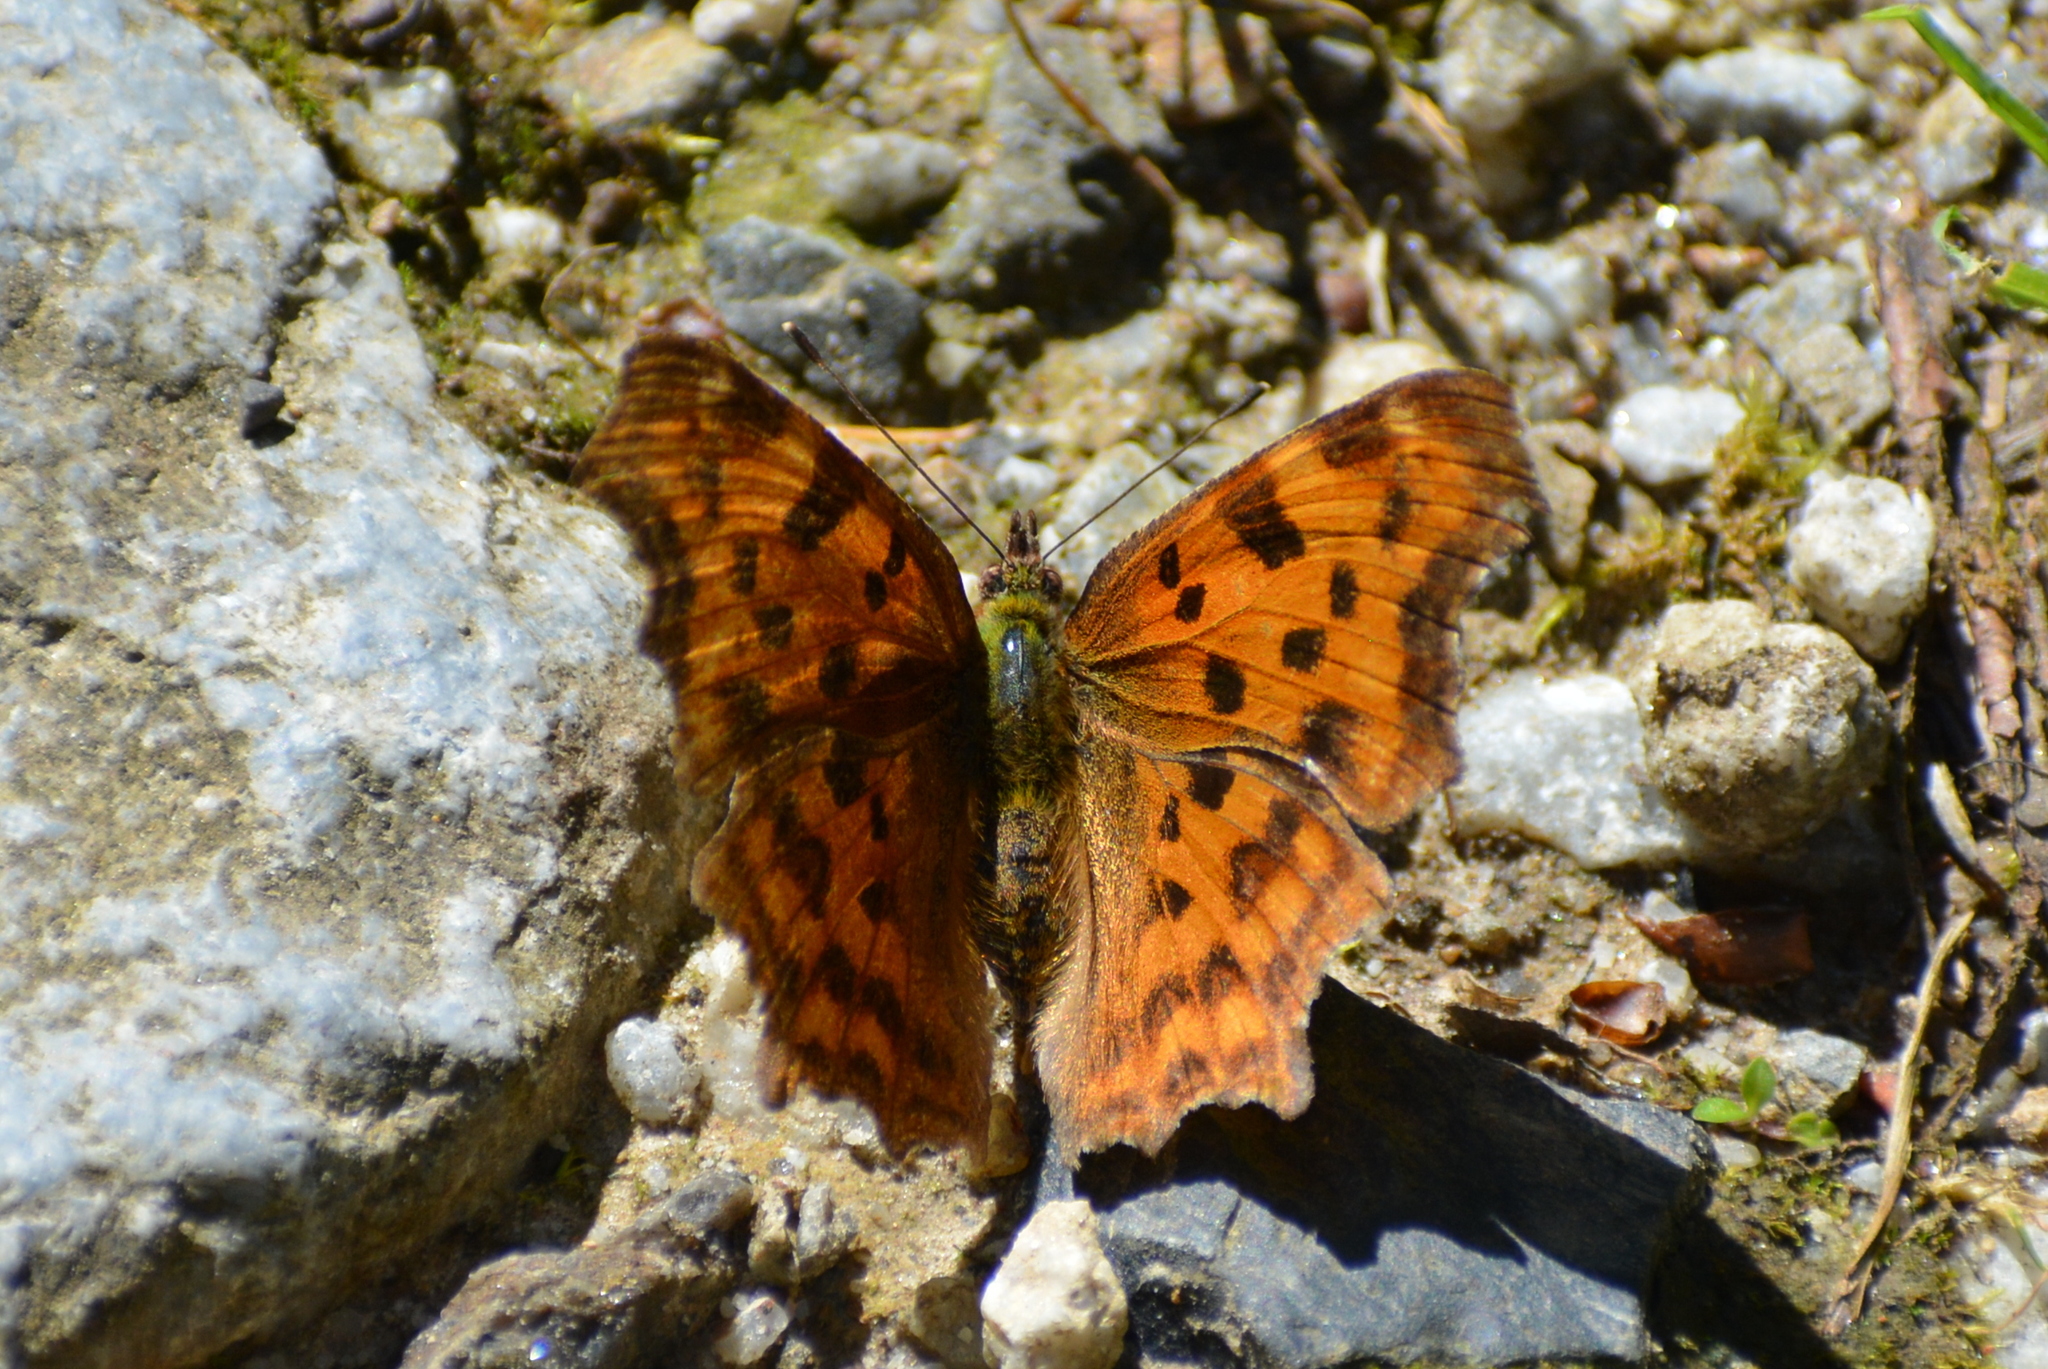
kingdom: Animalia
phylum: Arthropoda
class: Insecta
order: Lepidoptera
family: Nymphalidae
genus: Polygonia
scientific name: Polygonia c-album
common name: Comma
